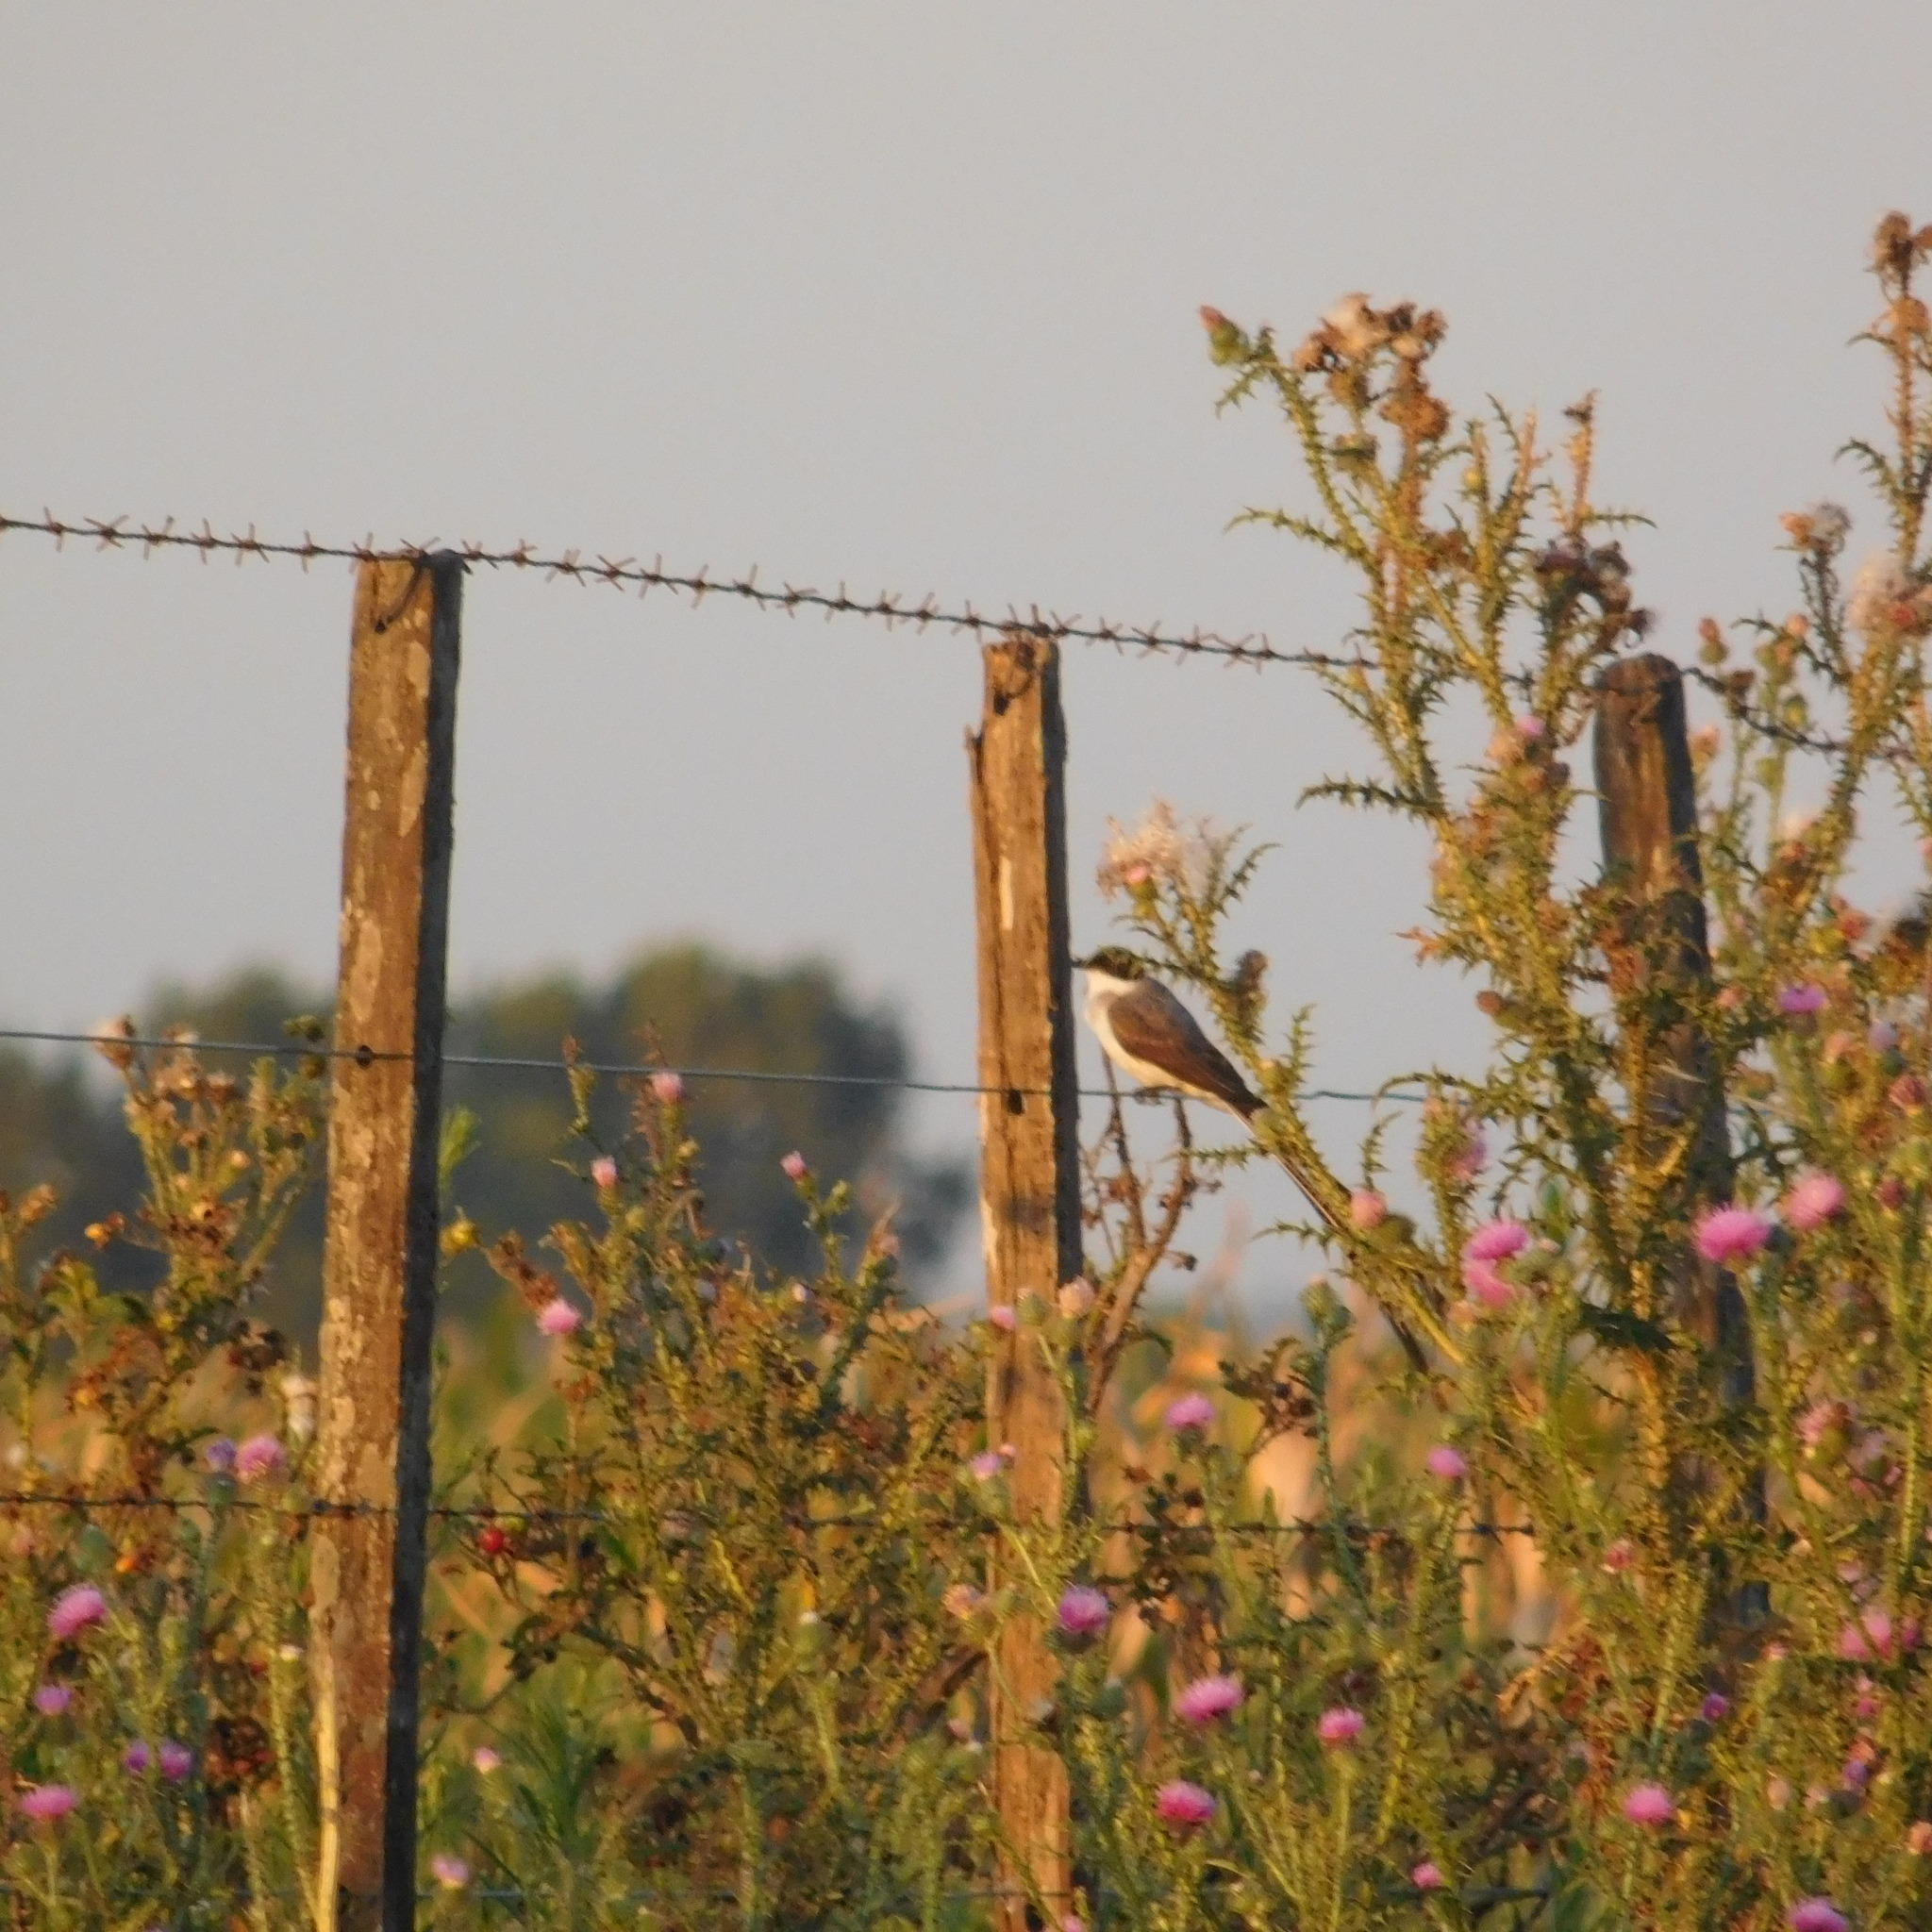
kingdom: Animalia
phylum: Chordata
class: Aves
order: Passeriformes
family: Tyrannidae
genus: Tyrannus
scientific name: Tyrannus savana
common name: Fork-tailed flycatcher
